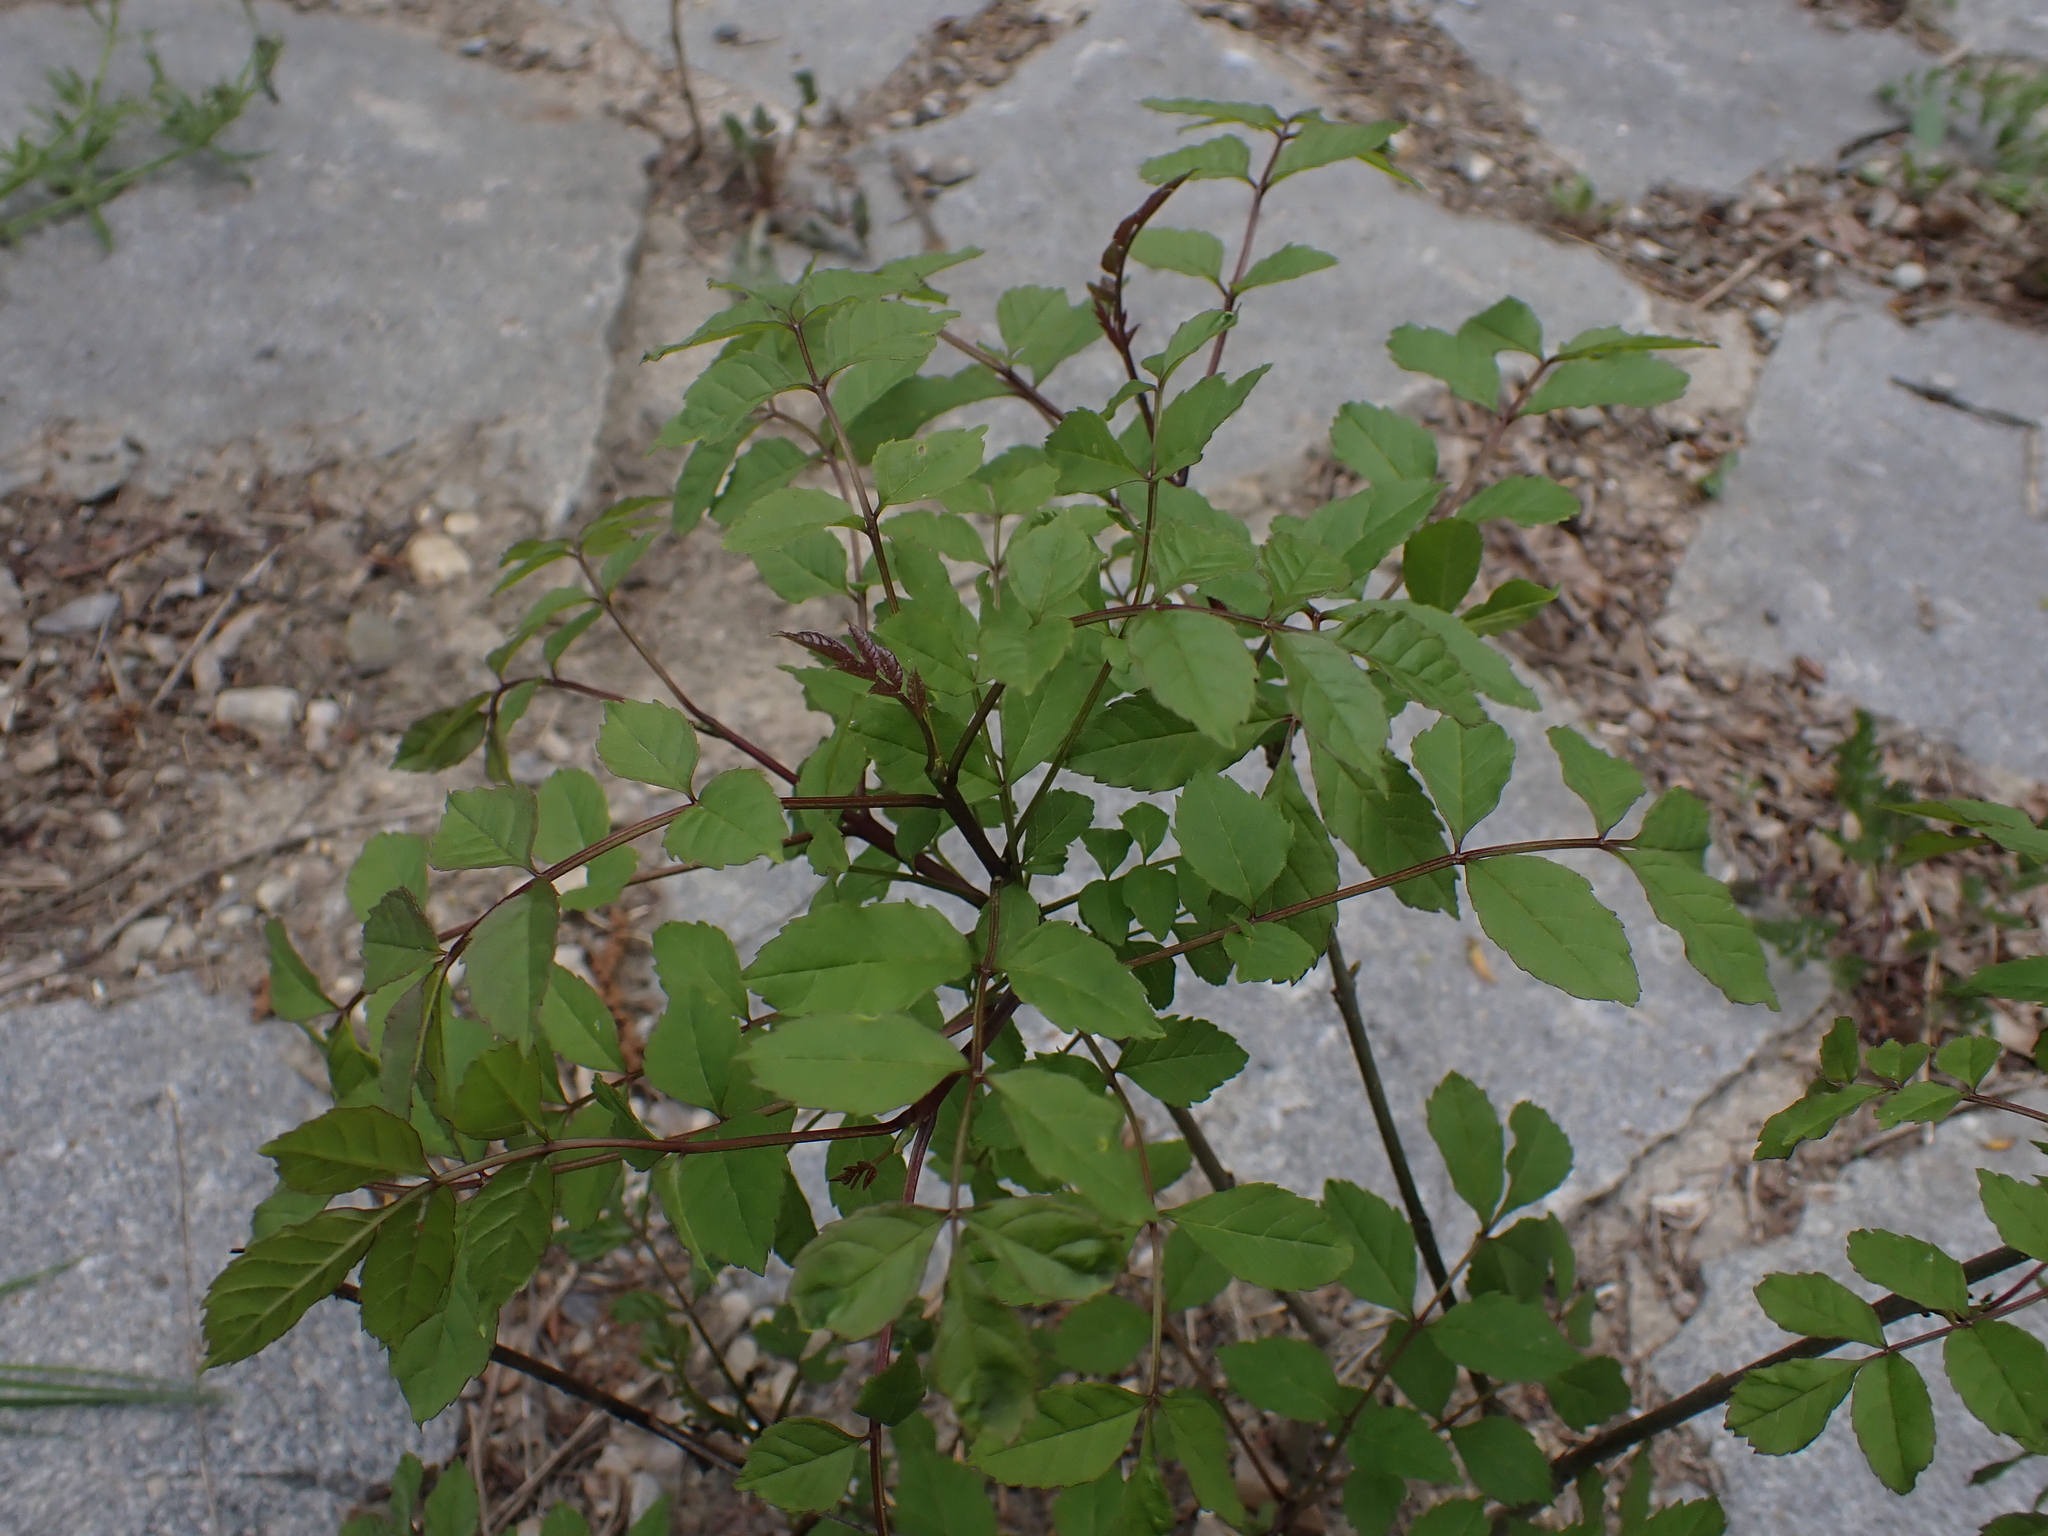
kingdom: Plantae
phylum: Tracheophyta
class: Magnoliopsida
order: Sapindales
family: Sapindaceae
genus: Koelreuteria
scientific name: Koelreuteria paniculata
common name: Pride-of-india
